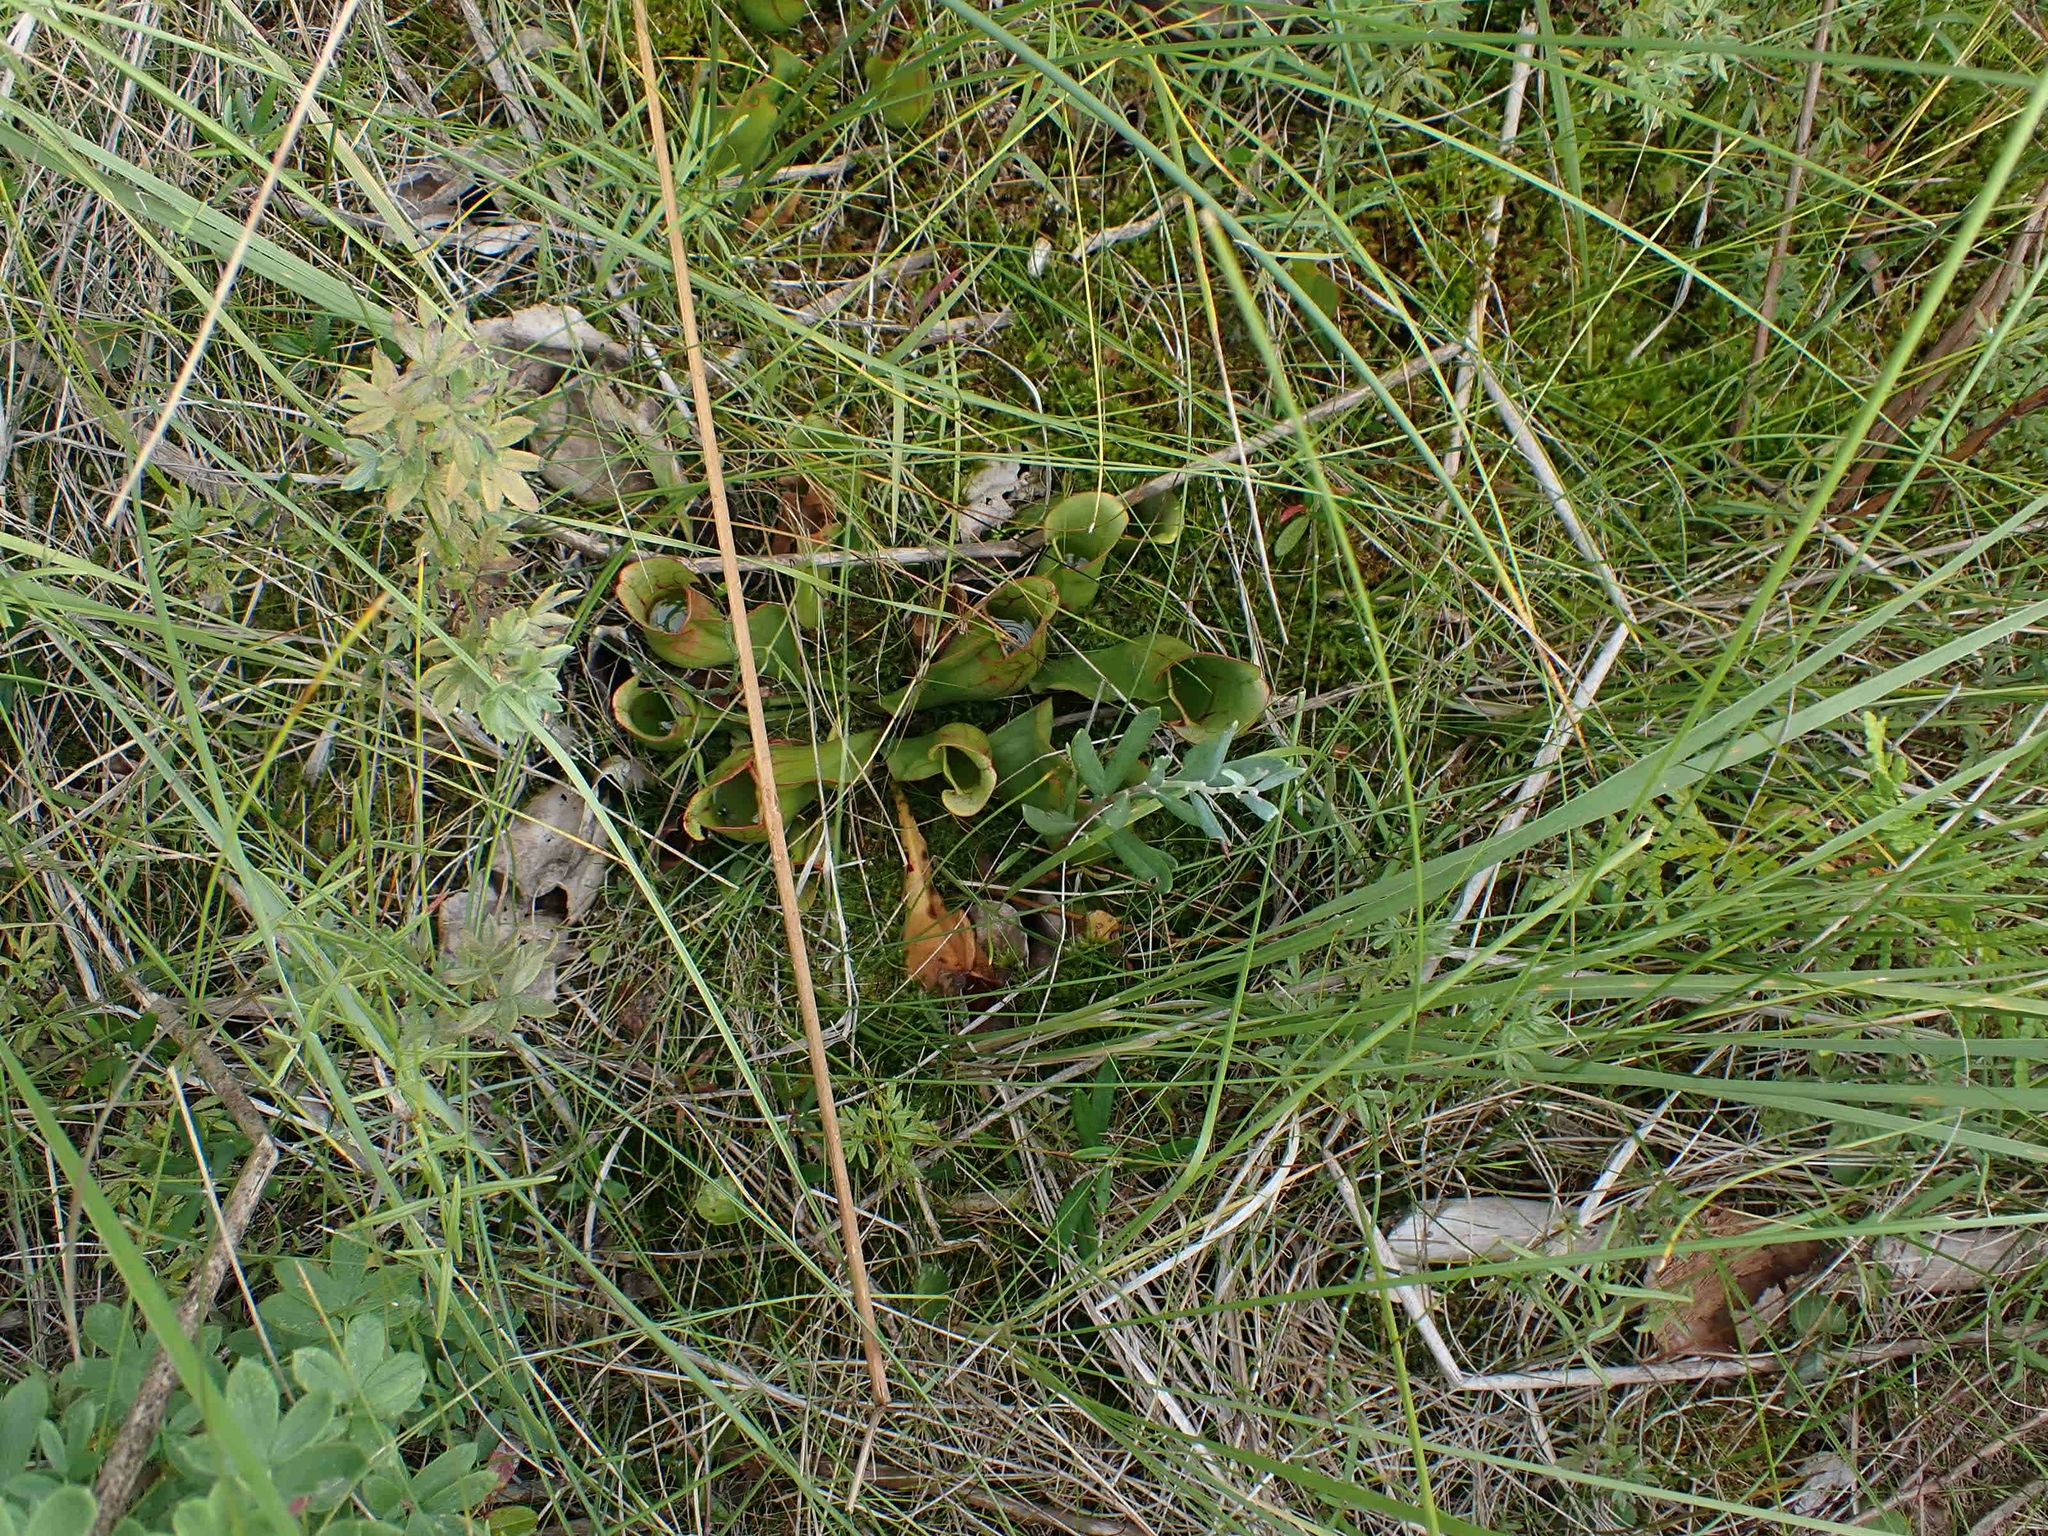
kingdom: Plantae
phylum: Tracheophyta
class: Magnoliopsida
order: Ericales
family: Sarraceniaceae
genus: Sarracenia
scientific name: Sarracenia purpurea
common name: Pitcherplant
